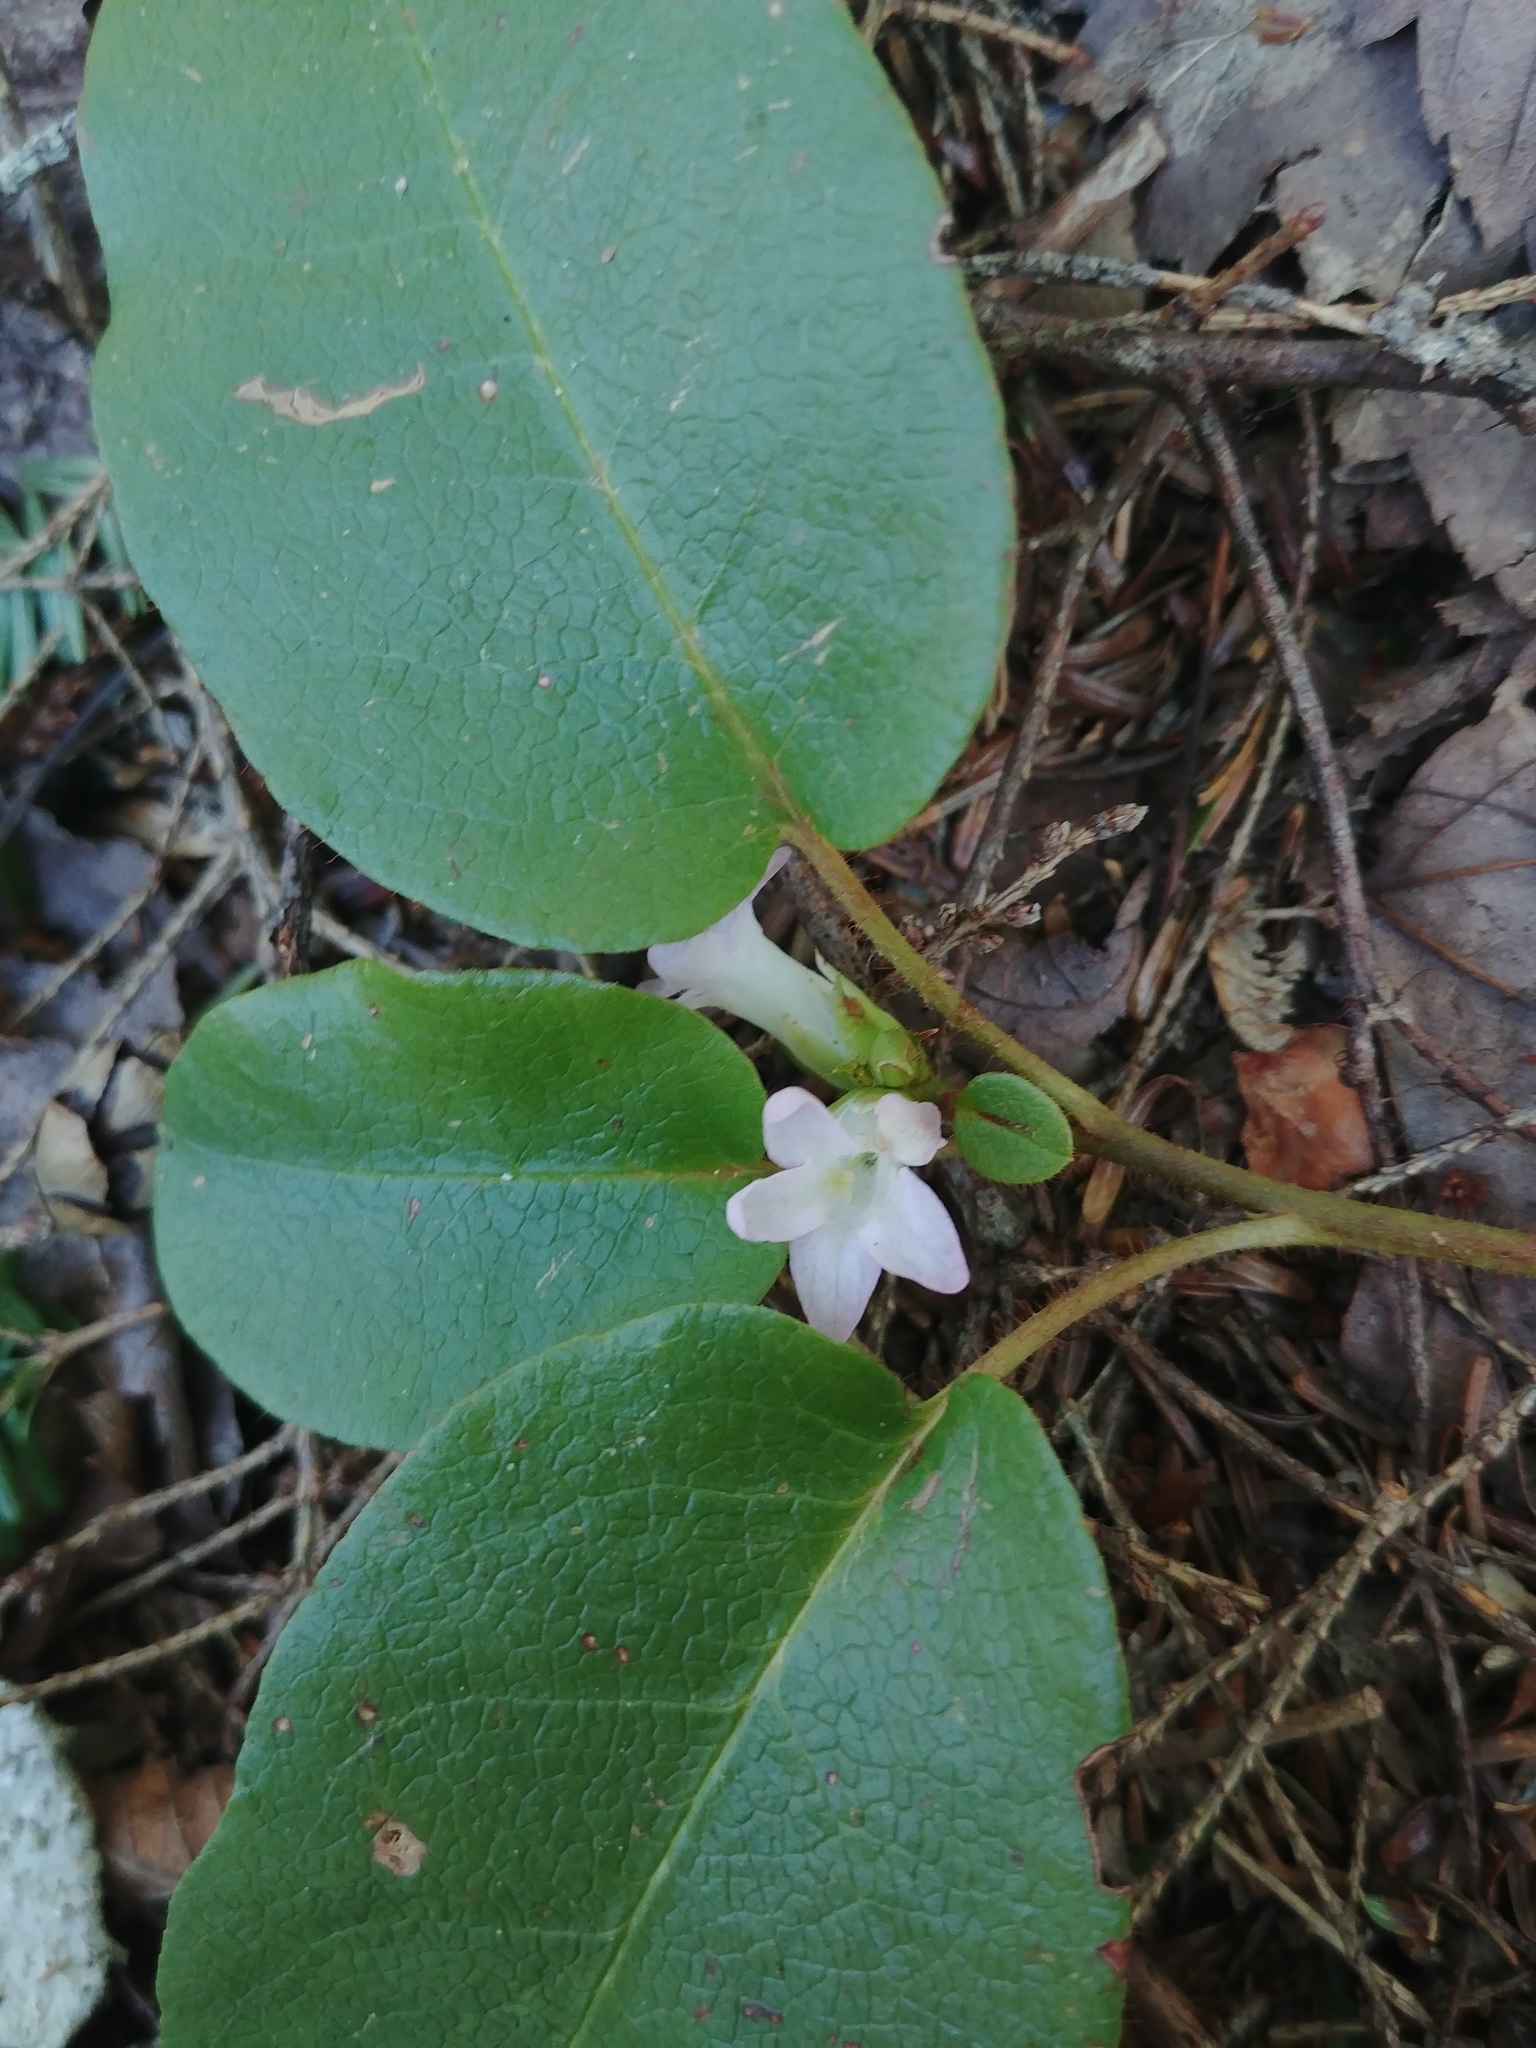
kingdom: Plantae
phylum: Tracheophyta
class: Magnoliopsida
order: Ericales
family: Ericaceae
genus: Epigaea
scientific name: Epigaea repens
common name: Gravelroot
